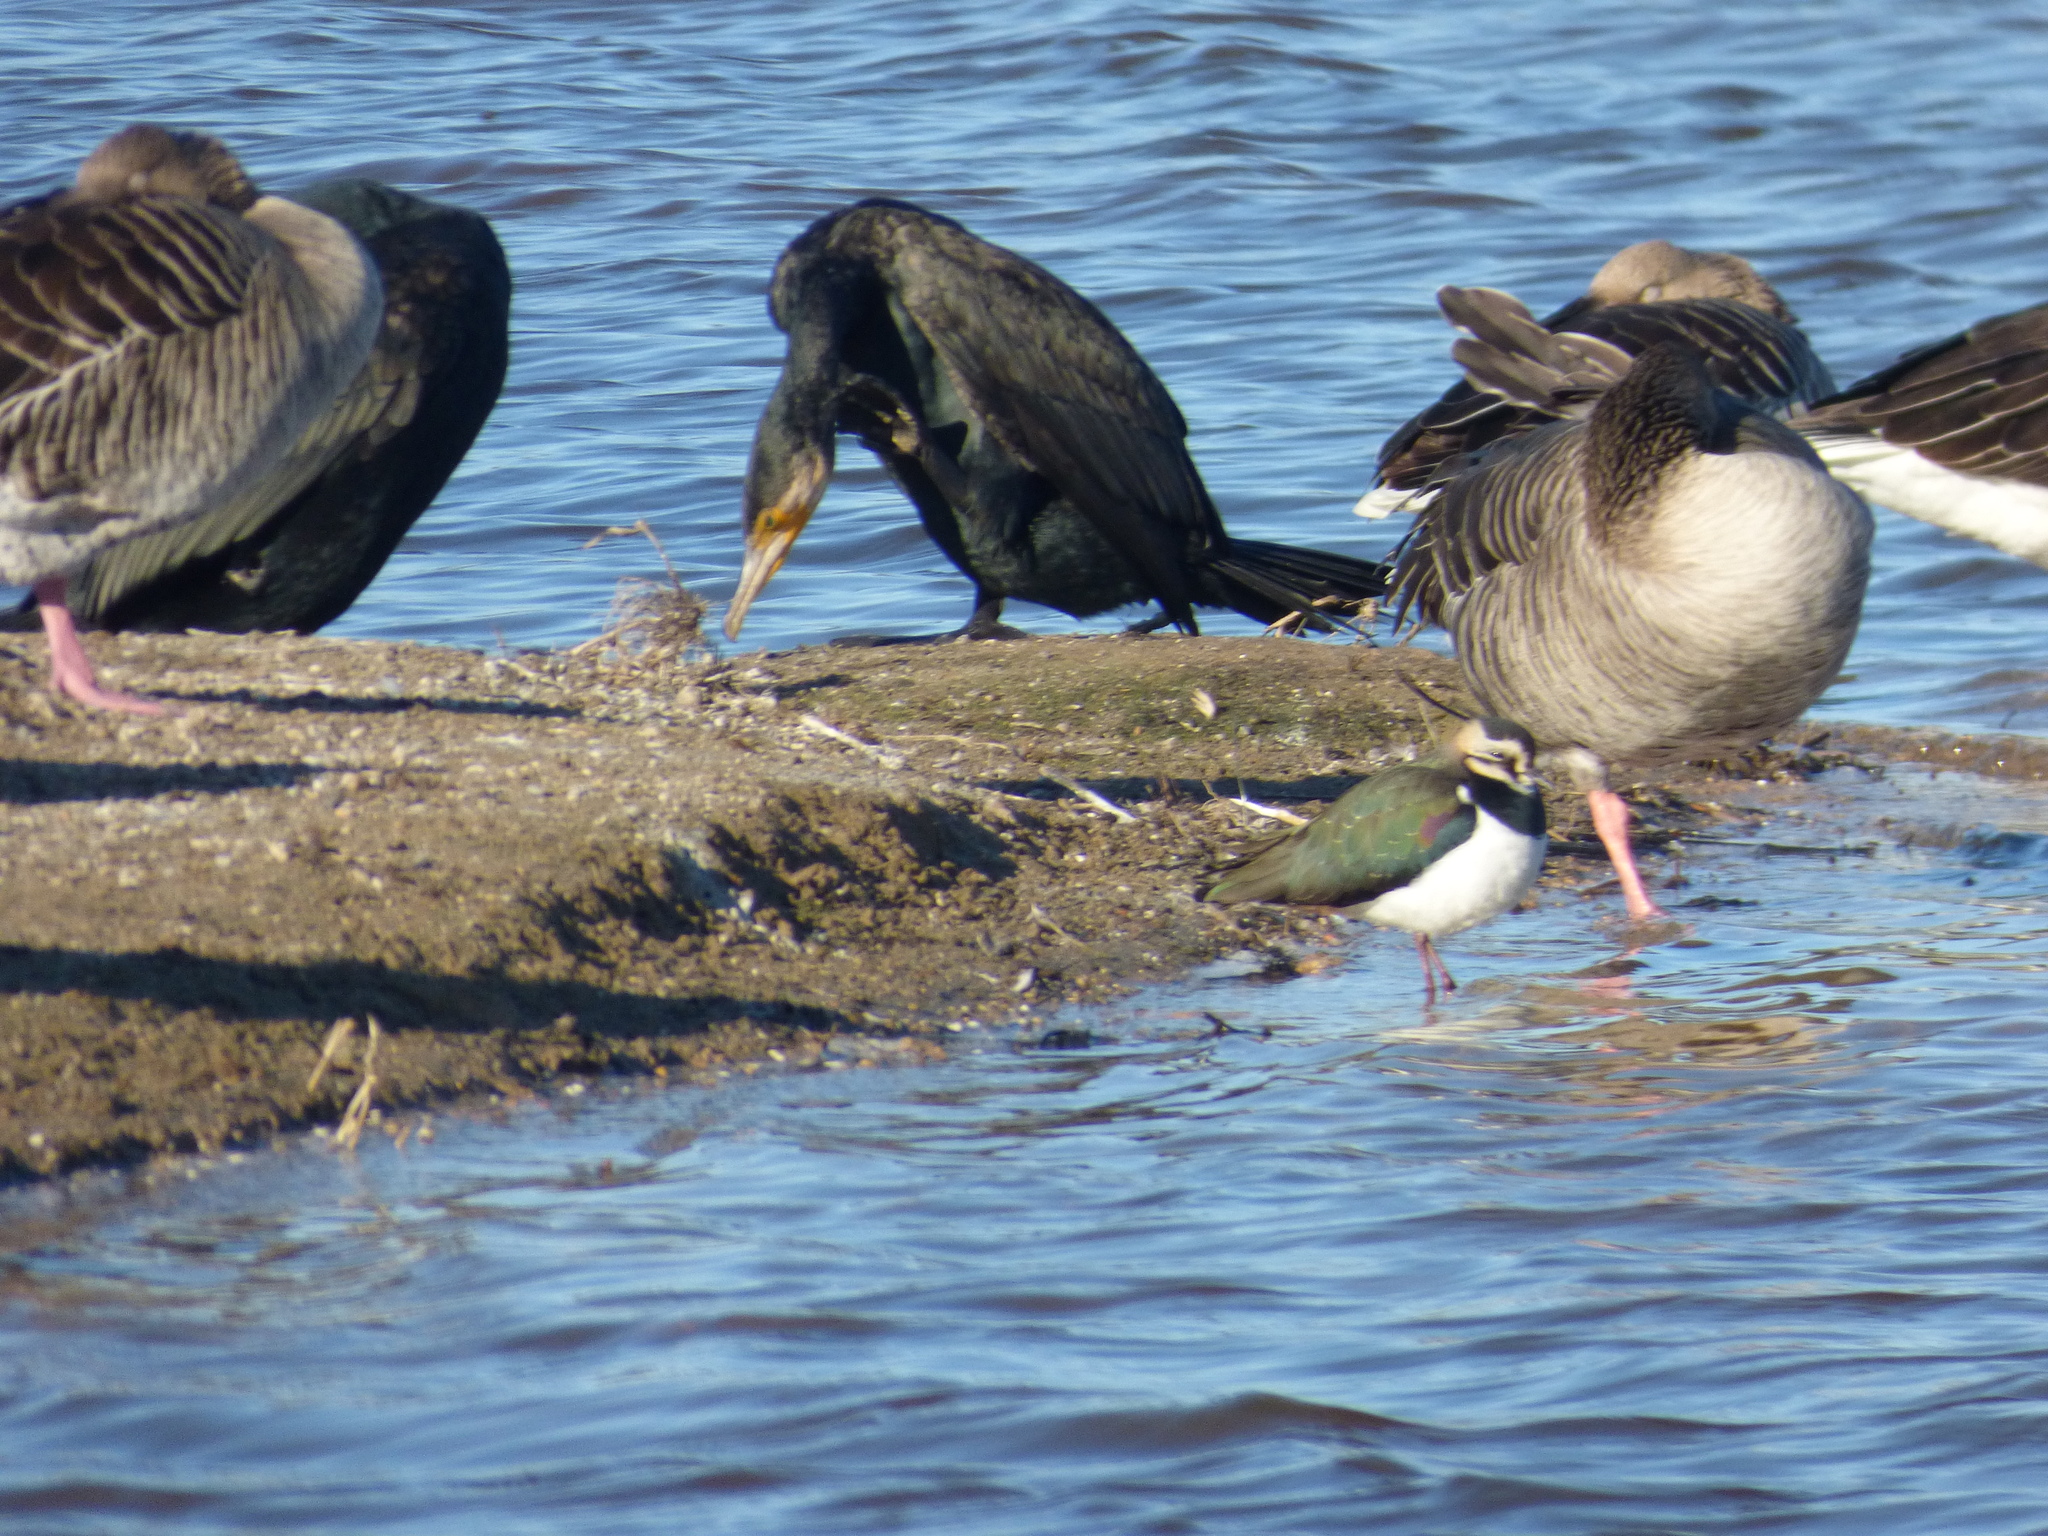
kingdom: Animalia
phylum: Chordata
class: Aves
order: Anseriformes
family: Anatidae
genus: Anser
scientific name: Anser anser
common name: Greylag goose
